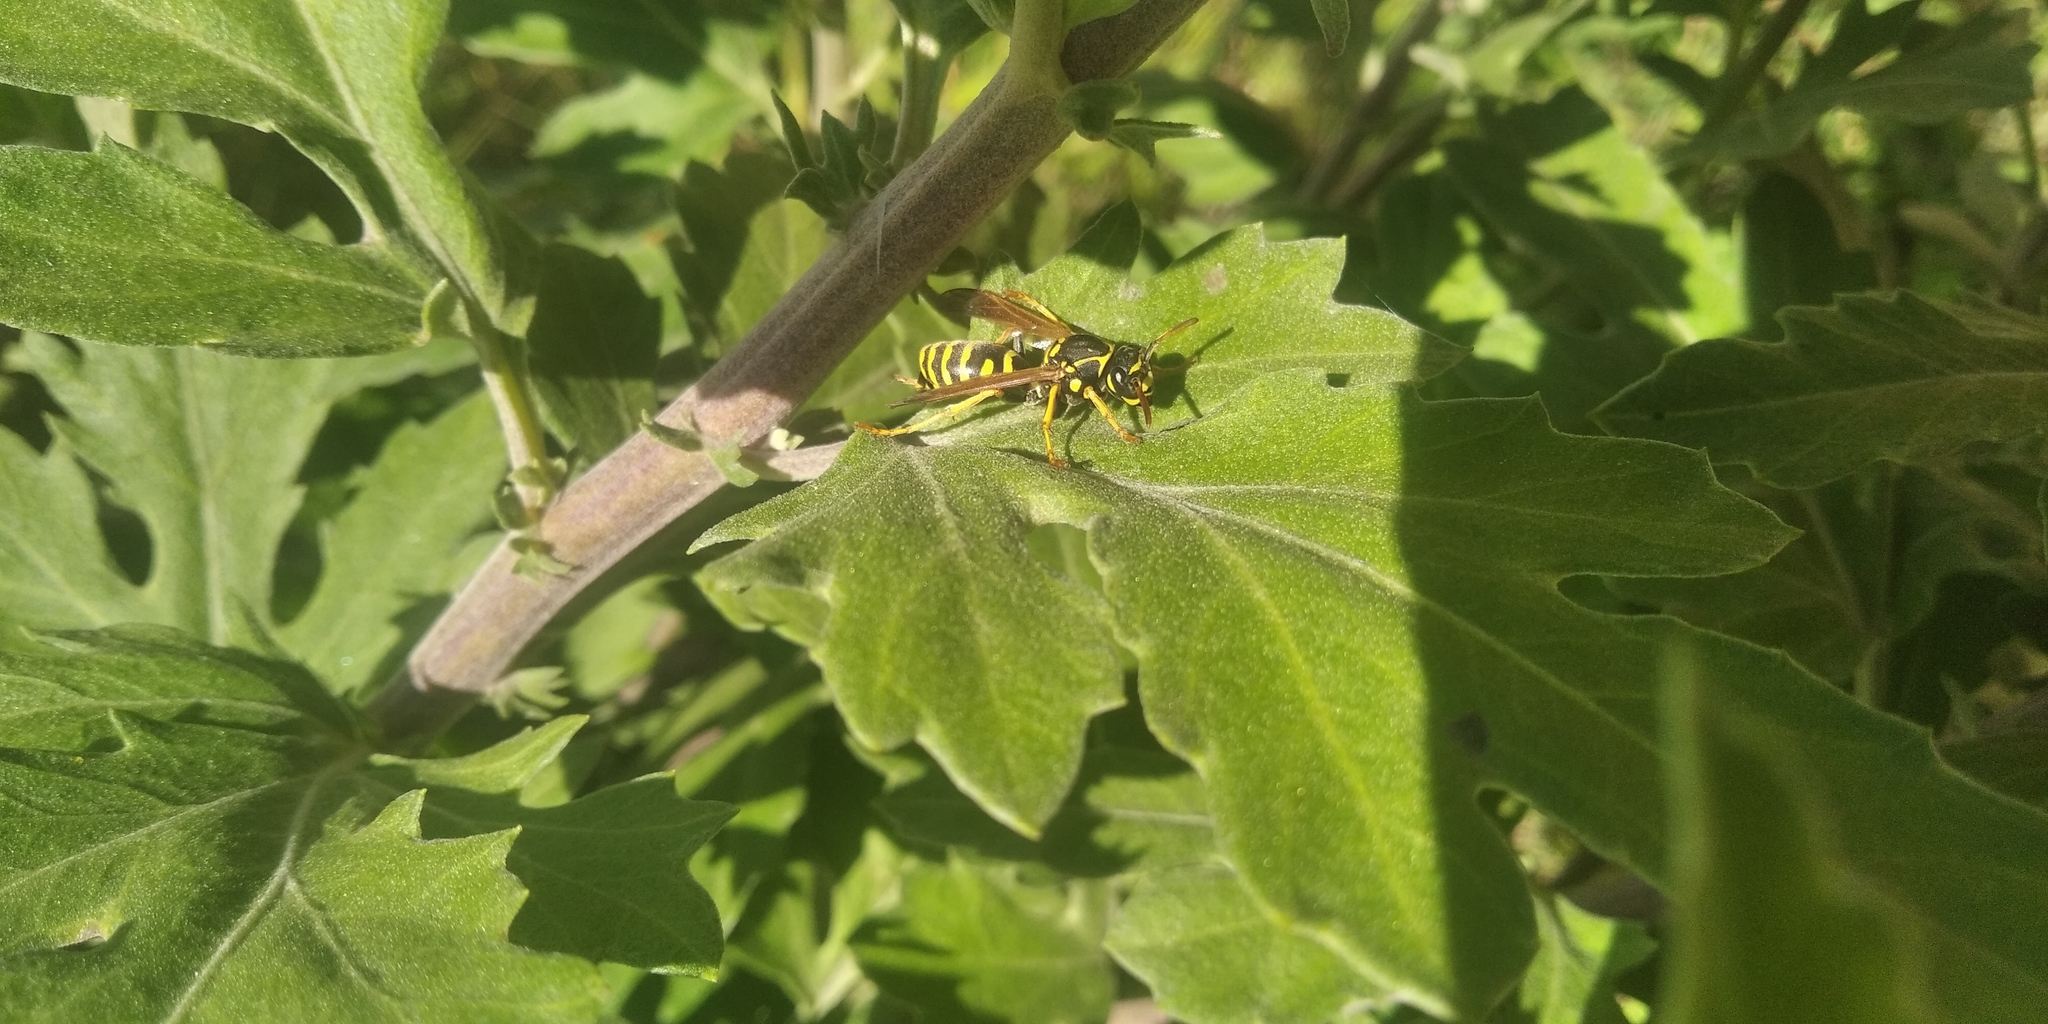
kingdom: Animalia
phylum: Arthropoda
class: Insecta
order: Hymenoptera
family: Eumenidae
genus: Polistes
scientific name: Polistes dominula
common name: Paper wasp
